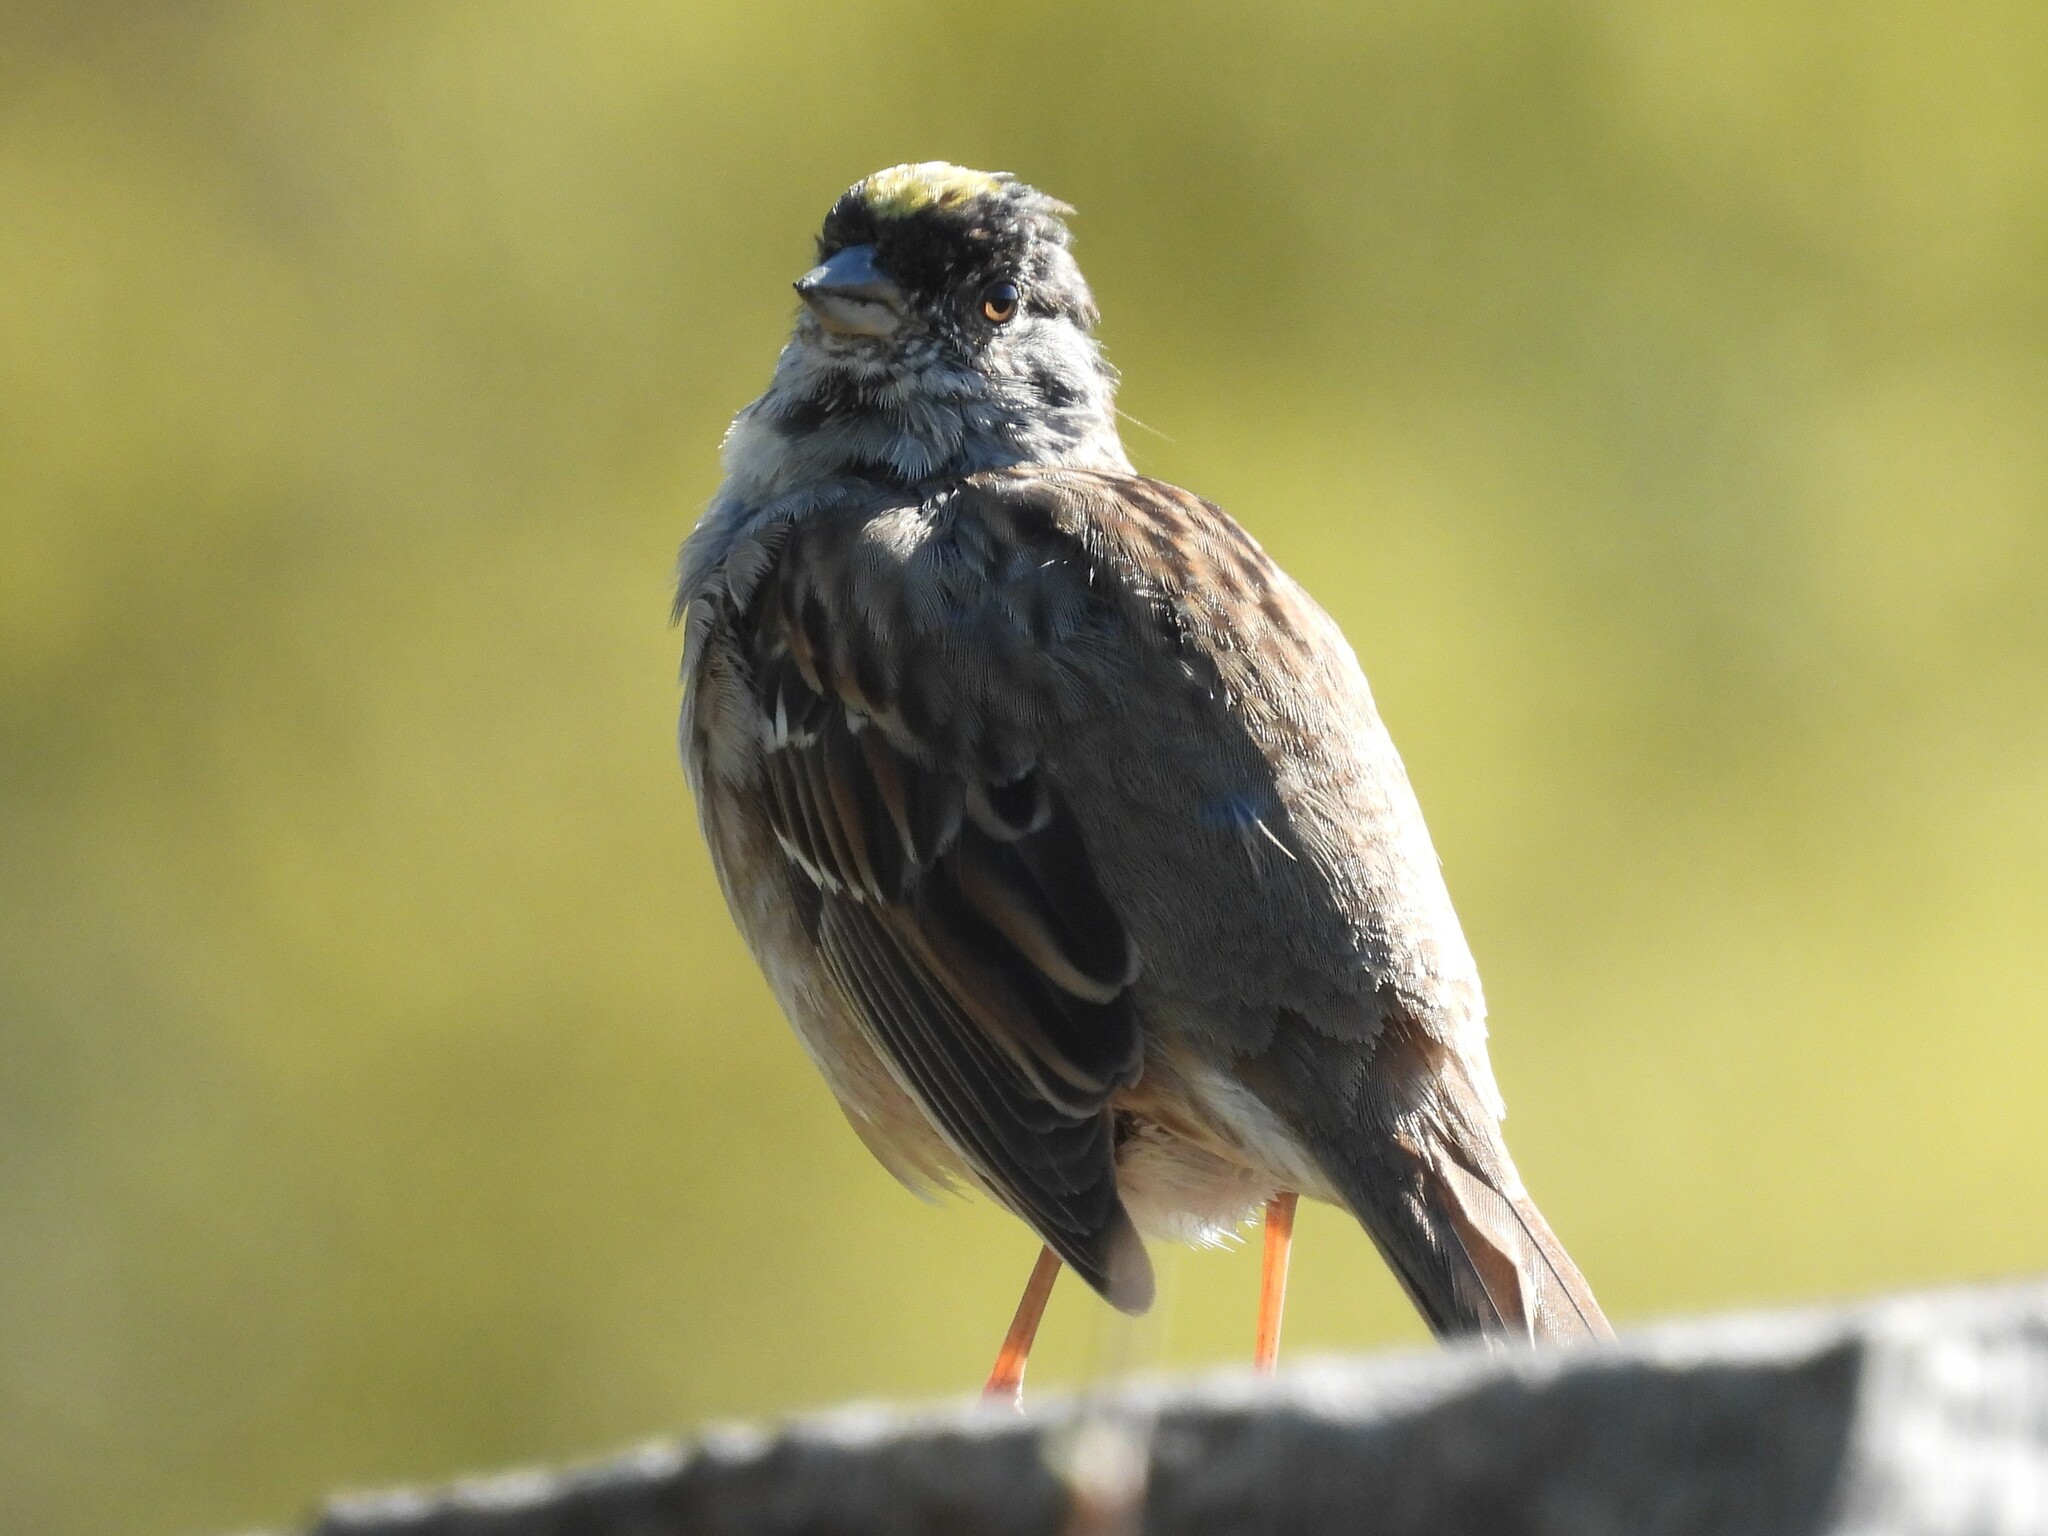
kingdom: Animalia
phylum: Chordata
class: Aves
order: Passeriformes
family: Passerellidae
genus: Zonotrichia
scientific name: Zonotrichia atricapilla
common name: Golden-crowned sparrow
